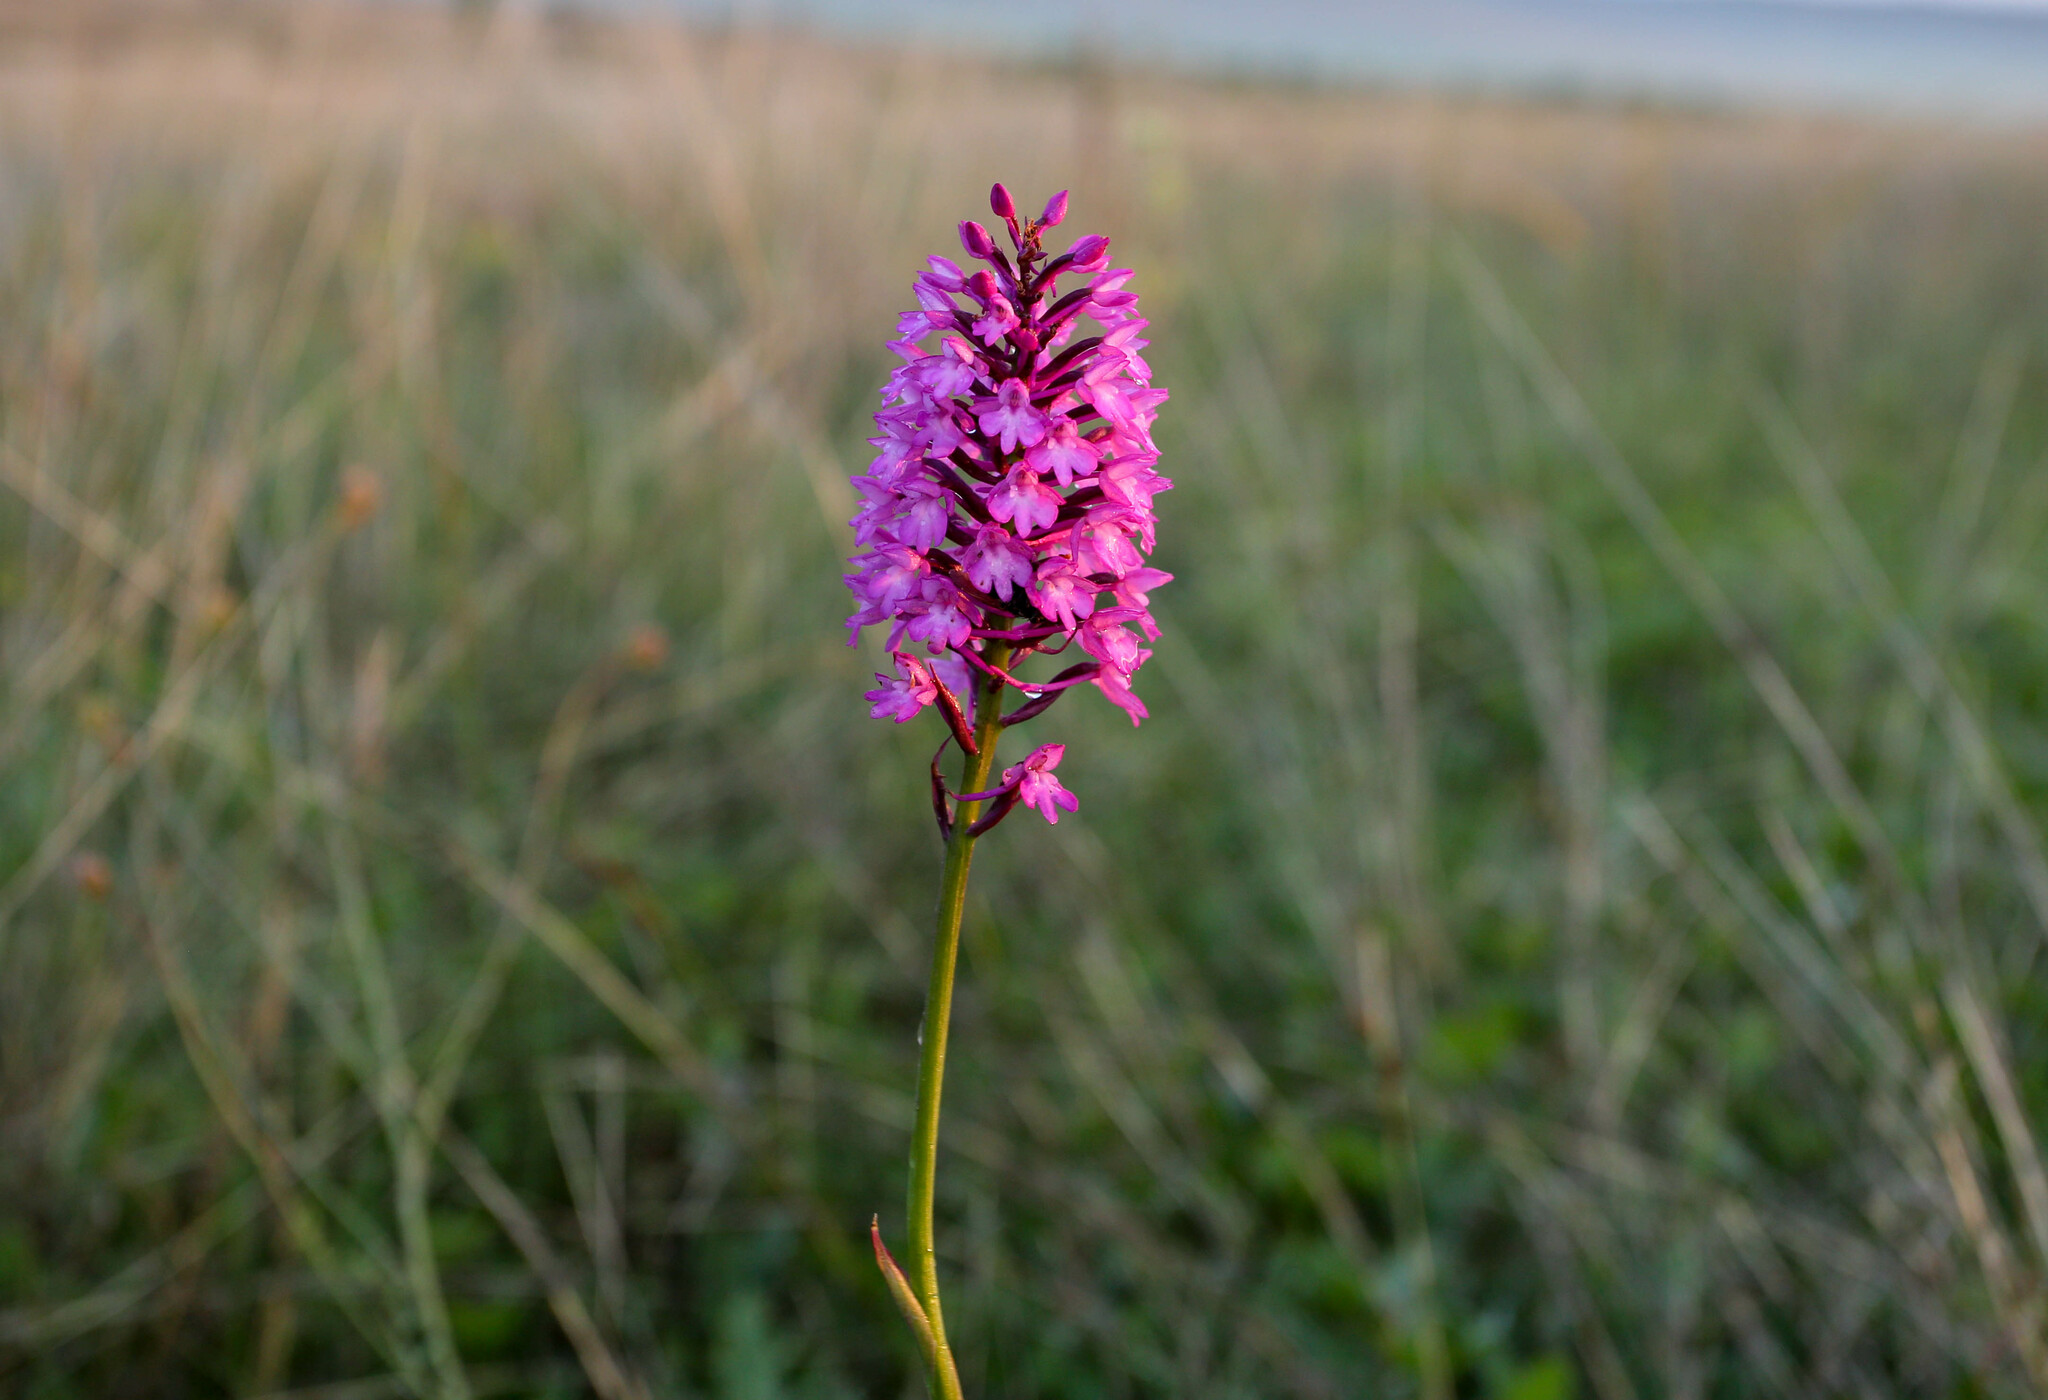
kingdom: Plantae
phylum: Tracheophyta
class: Liliopsida
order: Asparagales
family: Orchidaceae
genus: Anacamptis
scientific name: Anacamptis pyramidalis
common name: Pyramidal orchid
